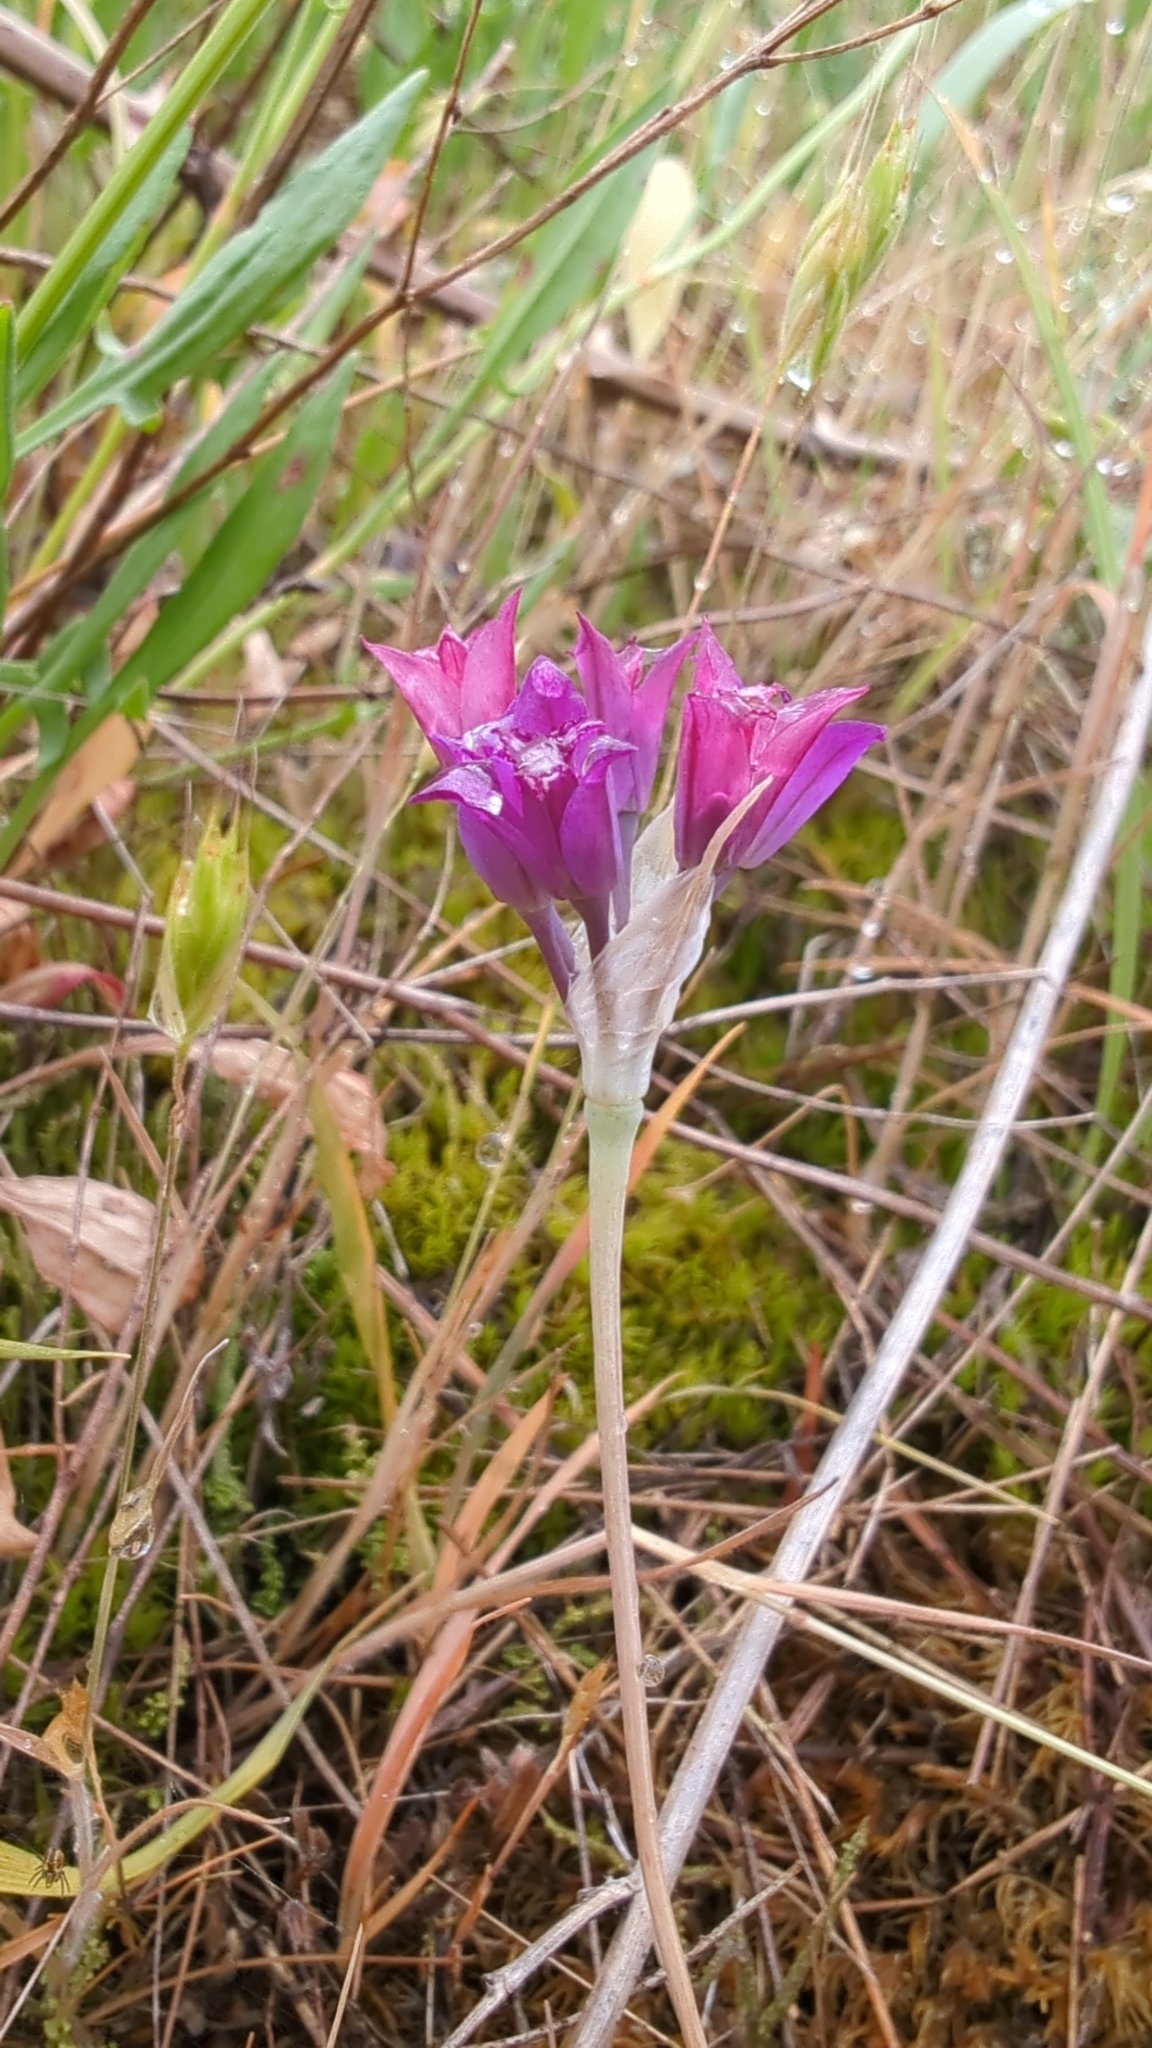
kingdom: Plantae
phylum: Tracheophyta
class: Liliopsida
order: Asparagales
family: Amaryllidaceae
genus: Allium
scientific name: Allium acuminatum
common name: Hooker's onion
